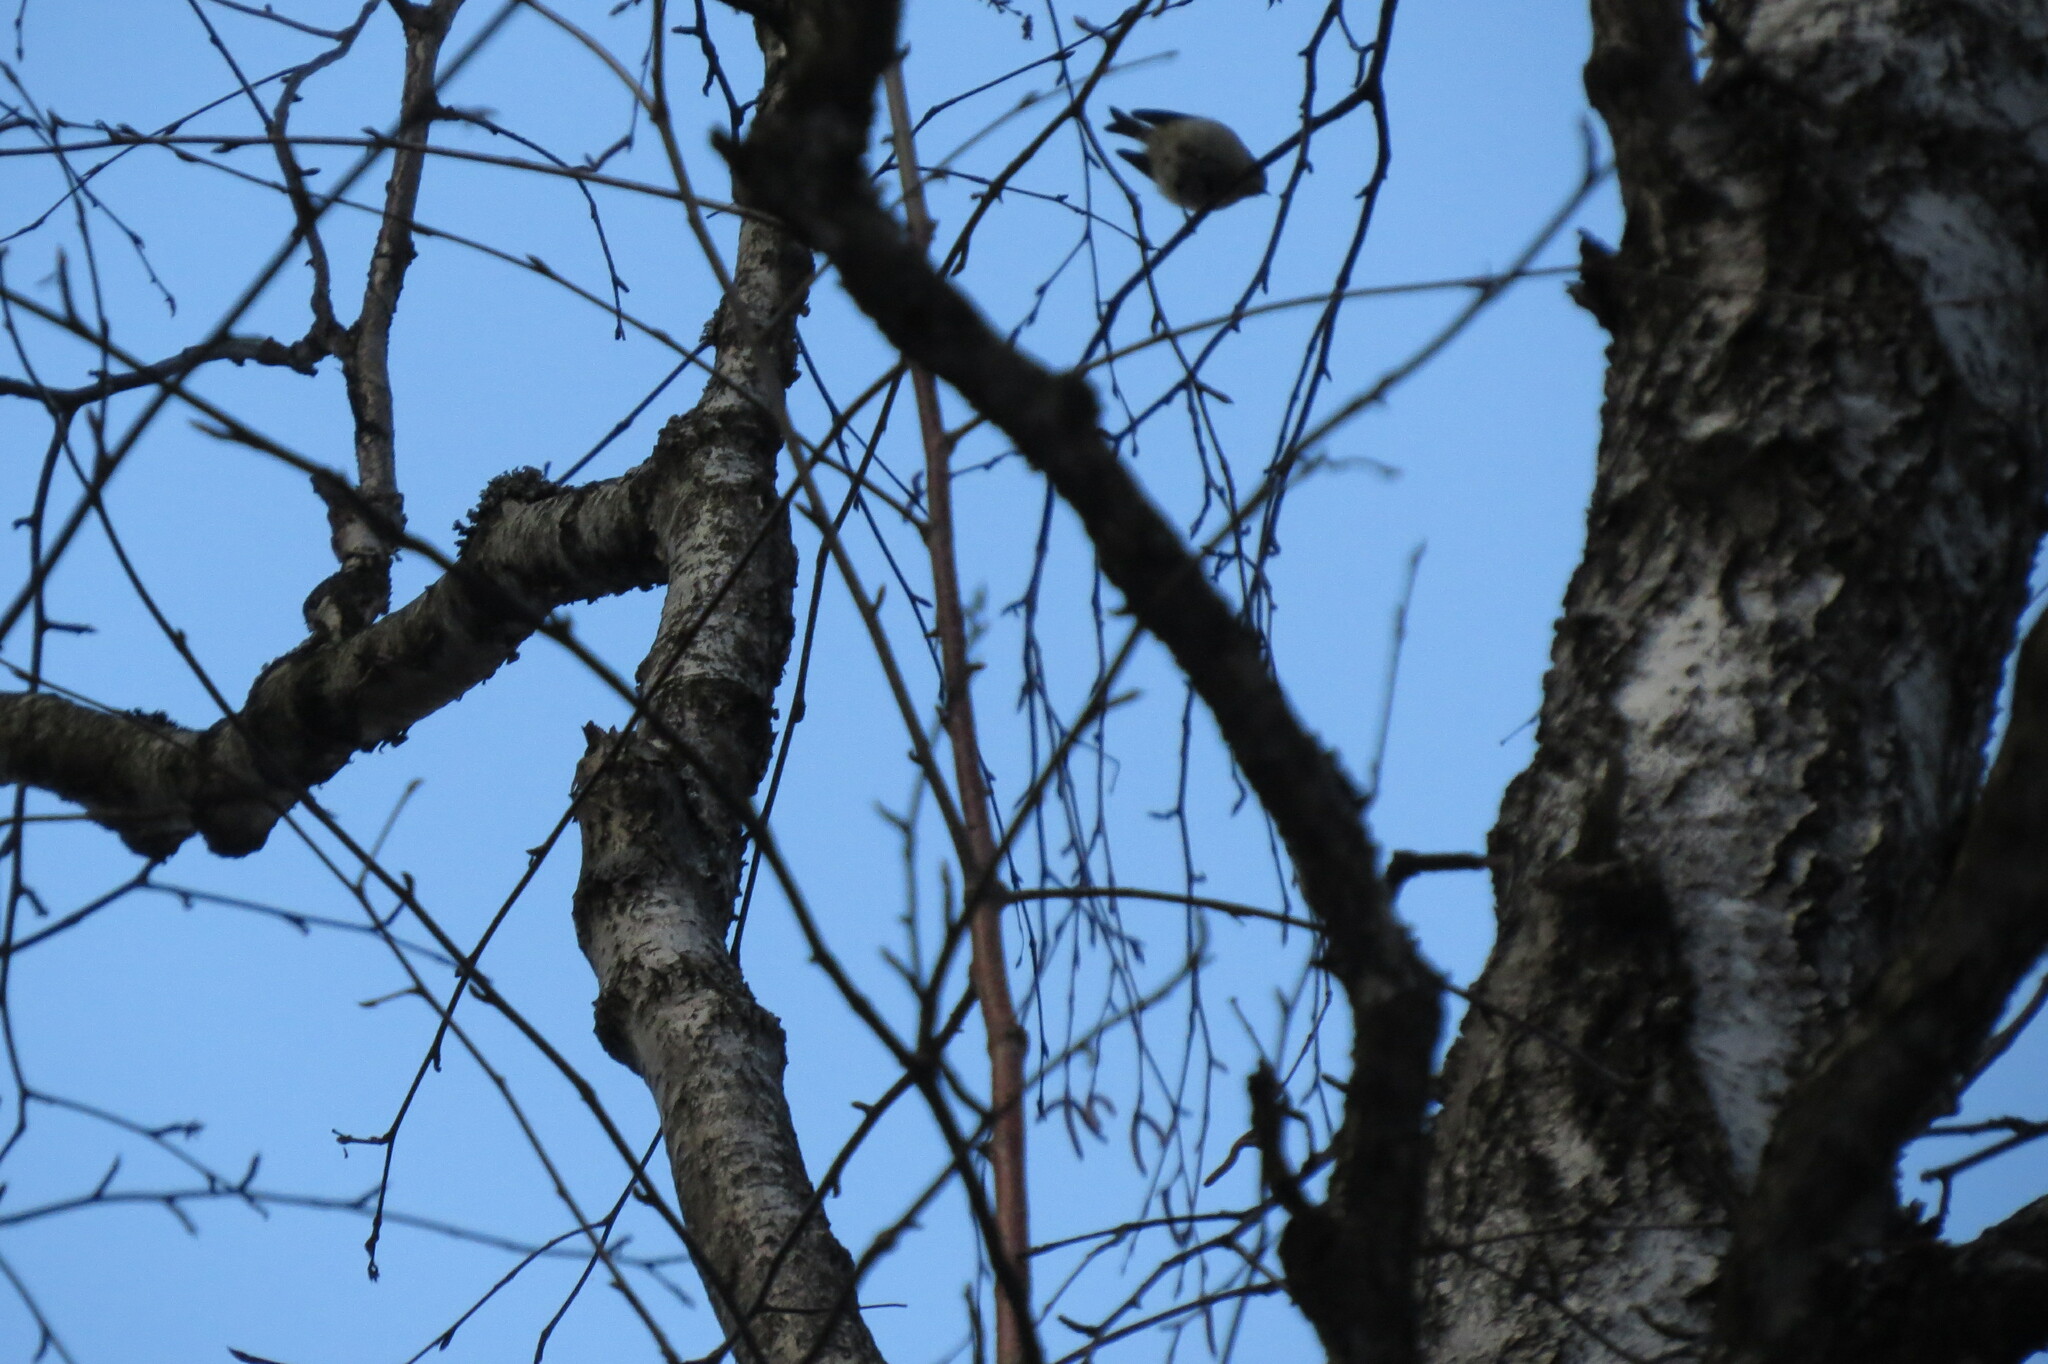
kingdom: Animalia
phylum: Chordata
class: Aves
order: Passeriformes
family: Regulidae
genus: Regulus
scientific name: Regulus regulus
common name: Goldcrest
